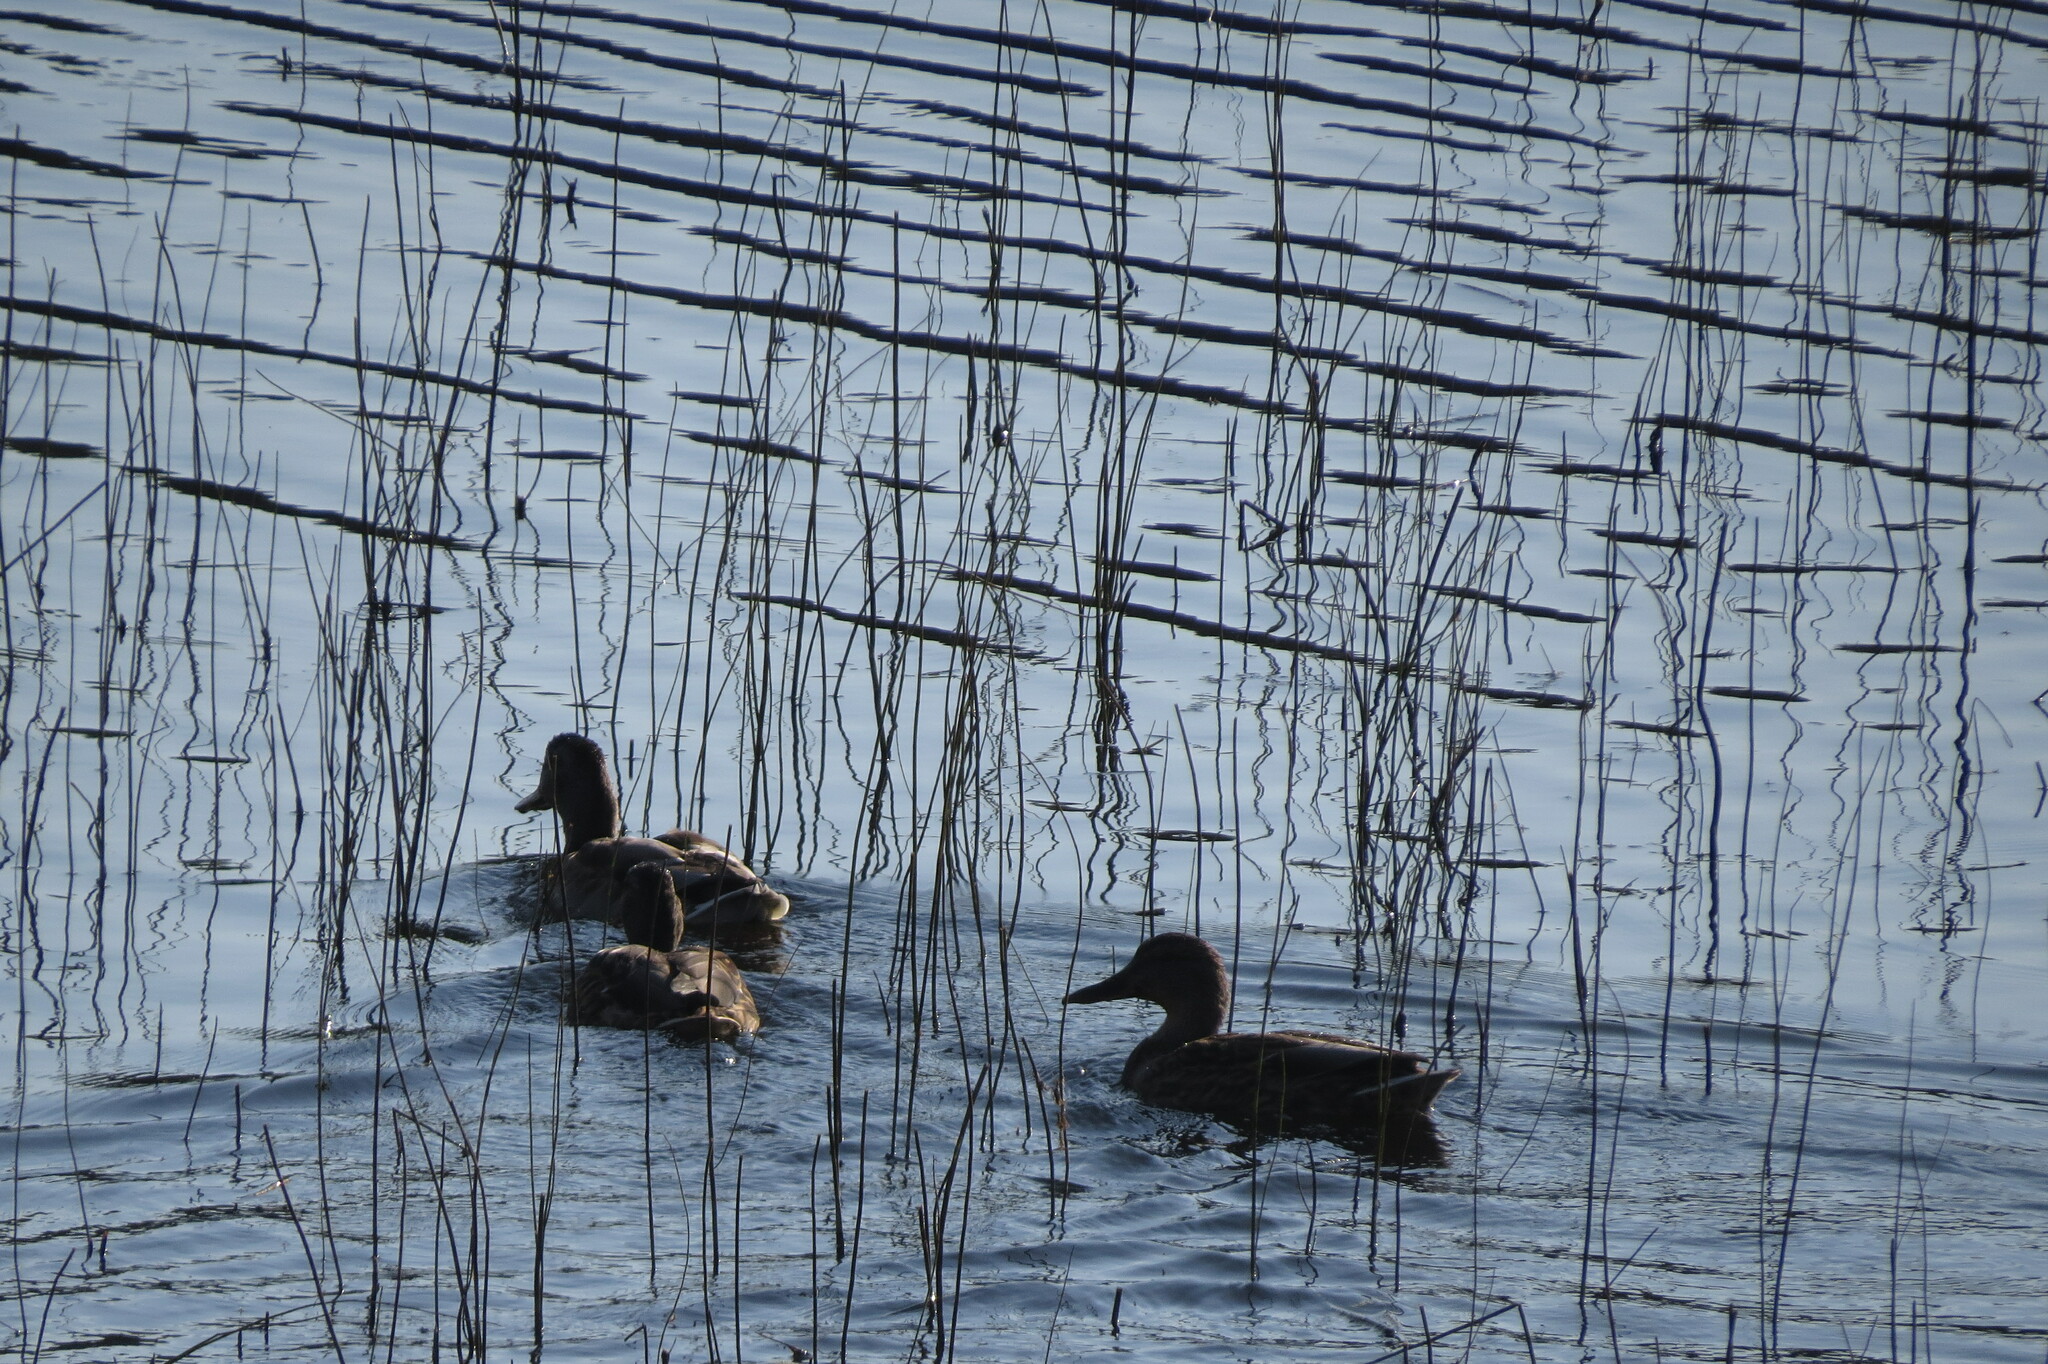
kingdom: Animalia
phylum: Chordata
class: Aves
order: Anseriformes
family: Anatidae
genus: Anas
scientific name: Anas platyrhynchos
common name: Mallard
